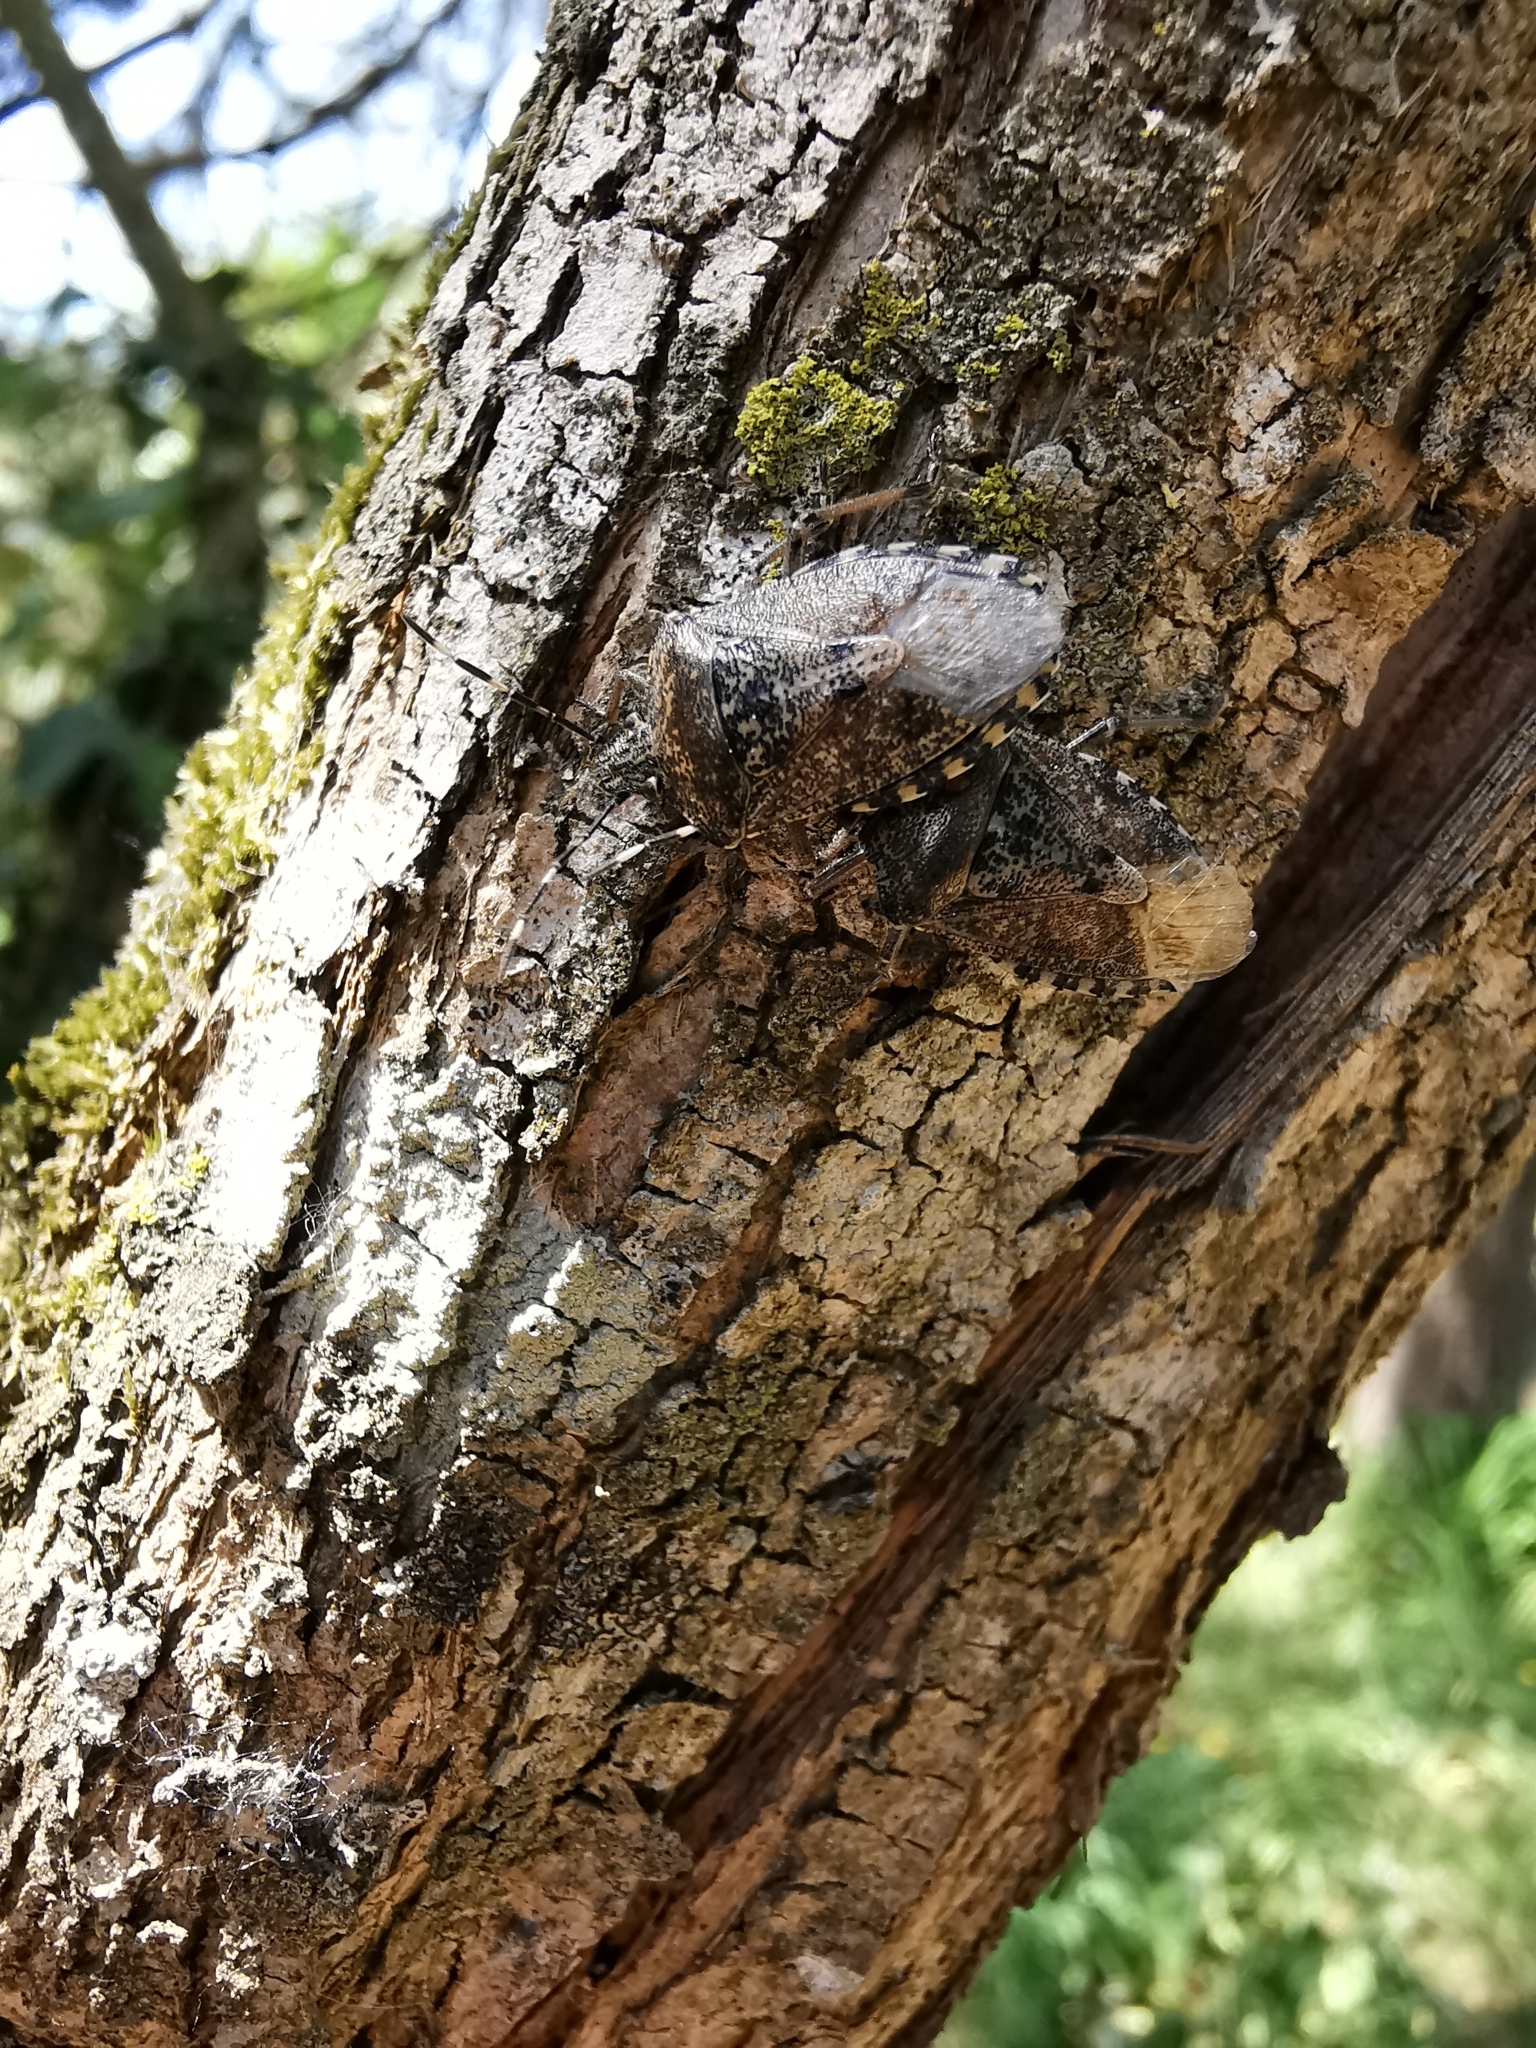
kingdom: Animalia
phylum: Arthropoda
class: Insecta
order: Hemiptera
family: Pentatomidae
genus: Rhaphigaster
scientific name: Rhaphigaster nebulosa
